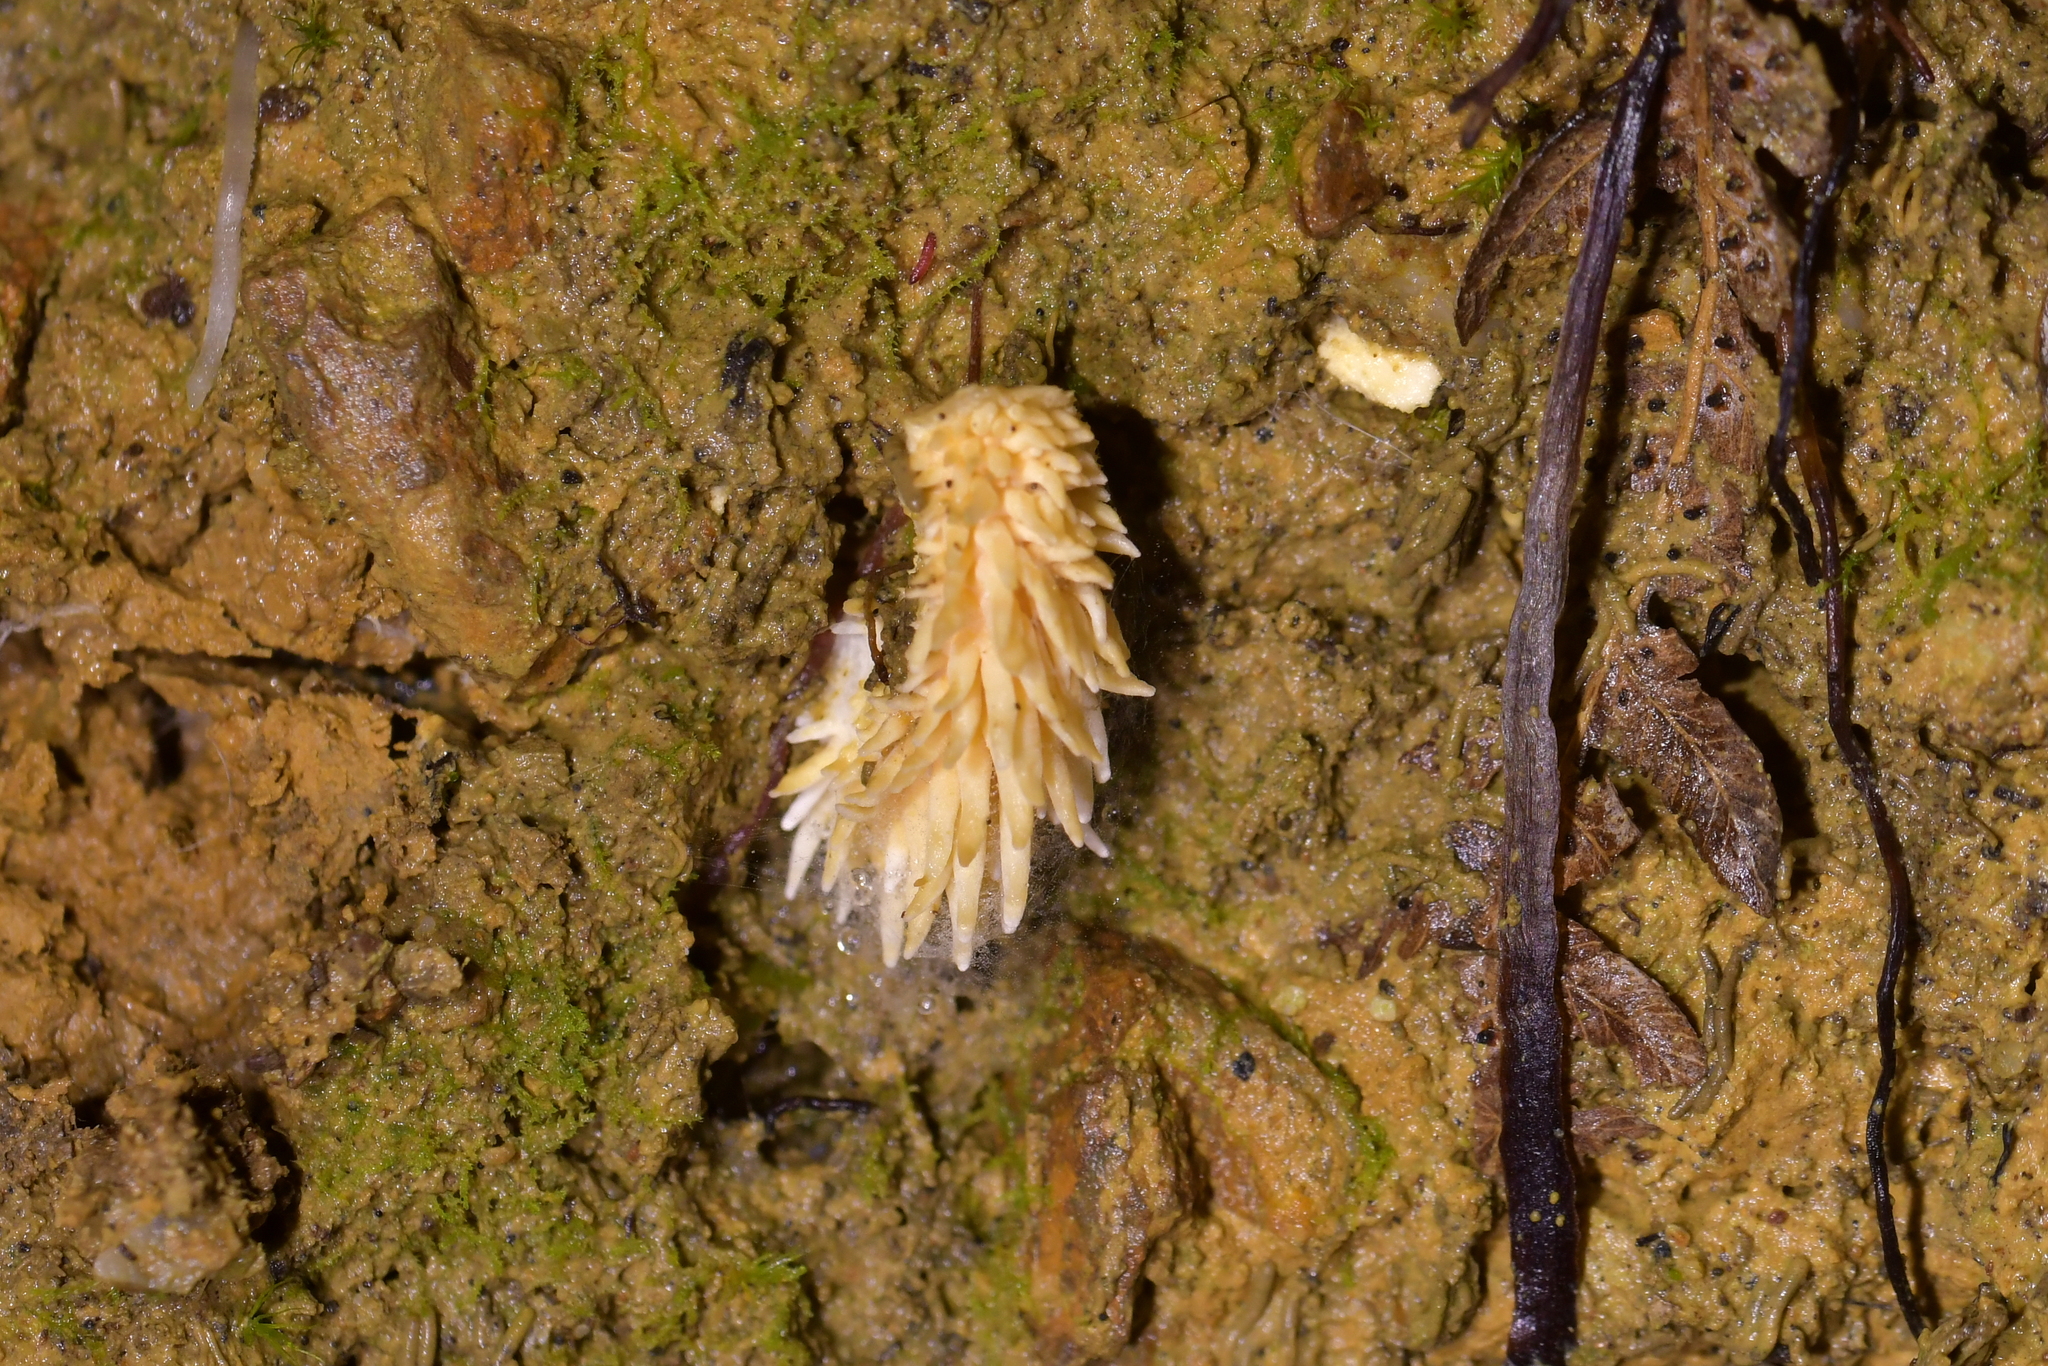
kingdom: Fungi
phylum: Basidiomycota
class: Agaricomycetes
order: Polyporales
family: Cerrenaceae
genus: Cerrena
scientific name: Cerrena zonata
